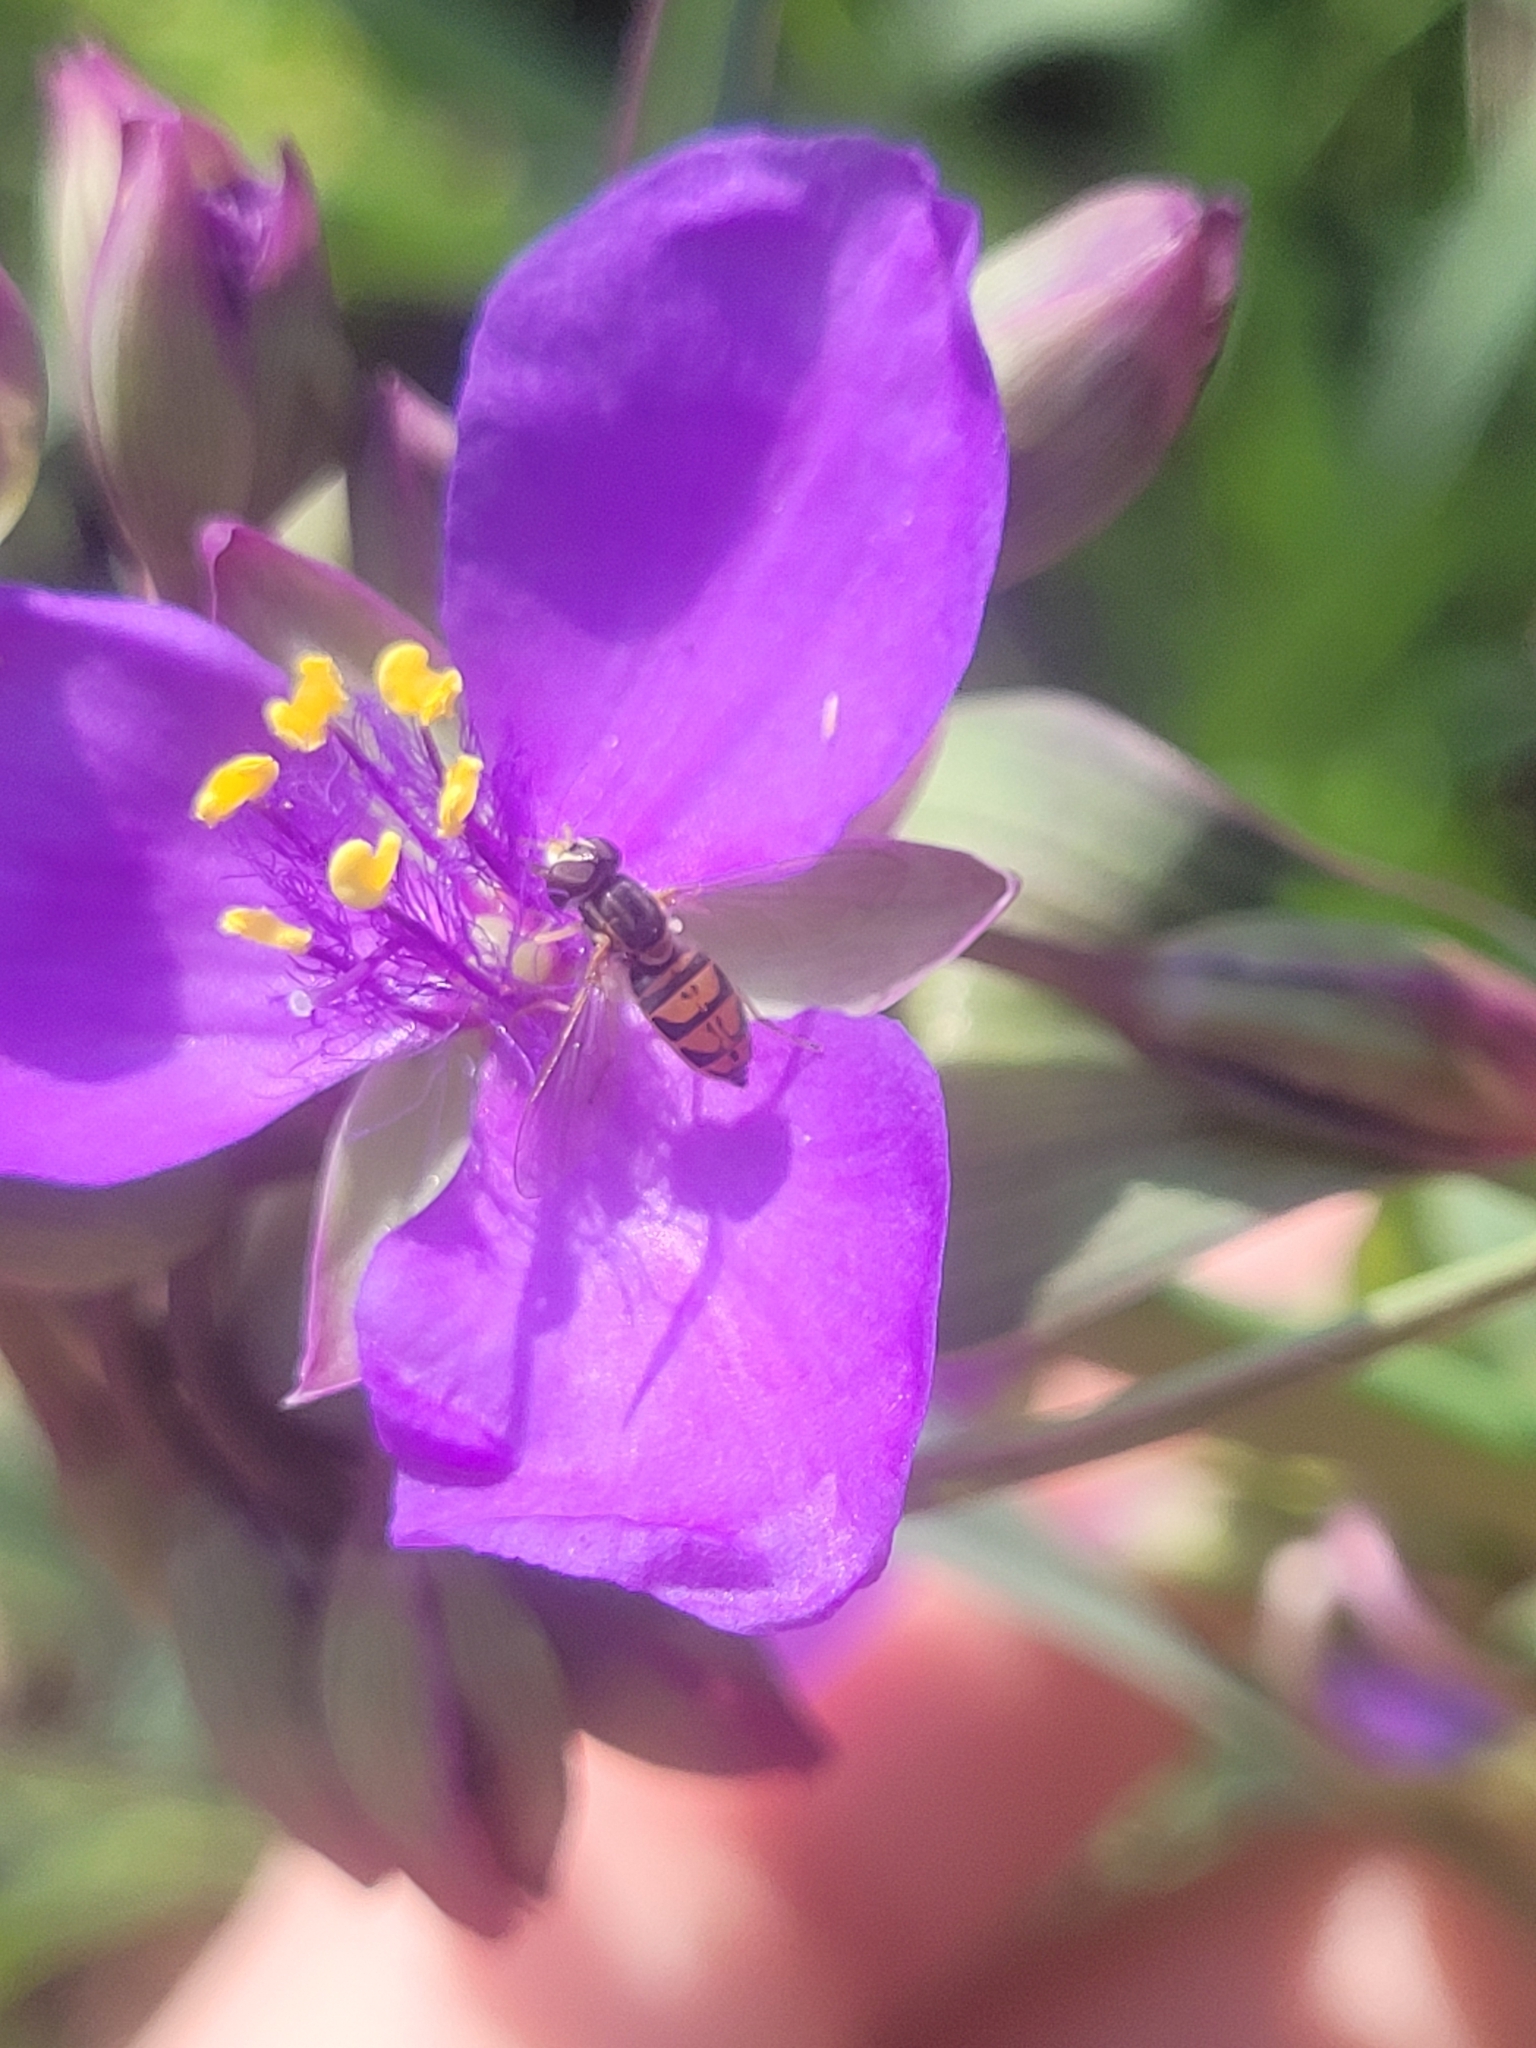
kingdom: Animalia
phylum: Arthropoda
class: Insecta
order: Diptera
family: Syrphidae
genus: Toxomerus
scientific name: Toxomerus marginatus
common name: Syrphid fly
